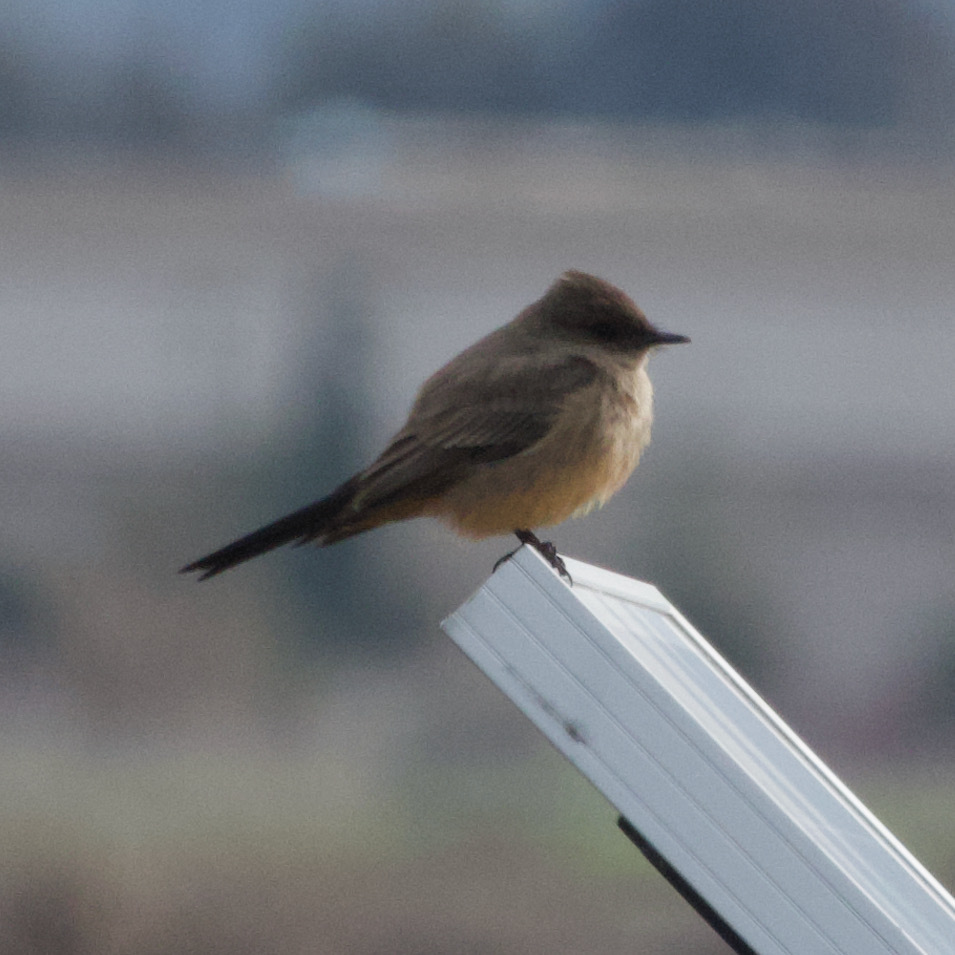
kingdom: Animalia
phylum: Chordata
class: Aves
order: Passeriformes
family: Tyrannidae
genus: Sayornis
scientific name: Sayornis saya
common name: Say's phoebe
